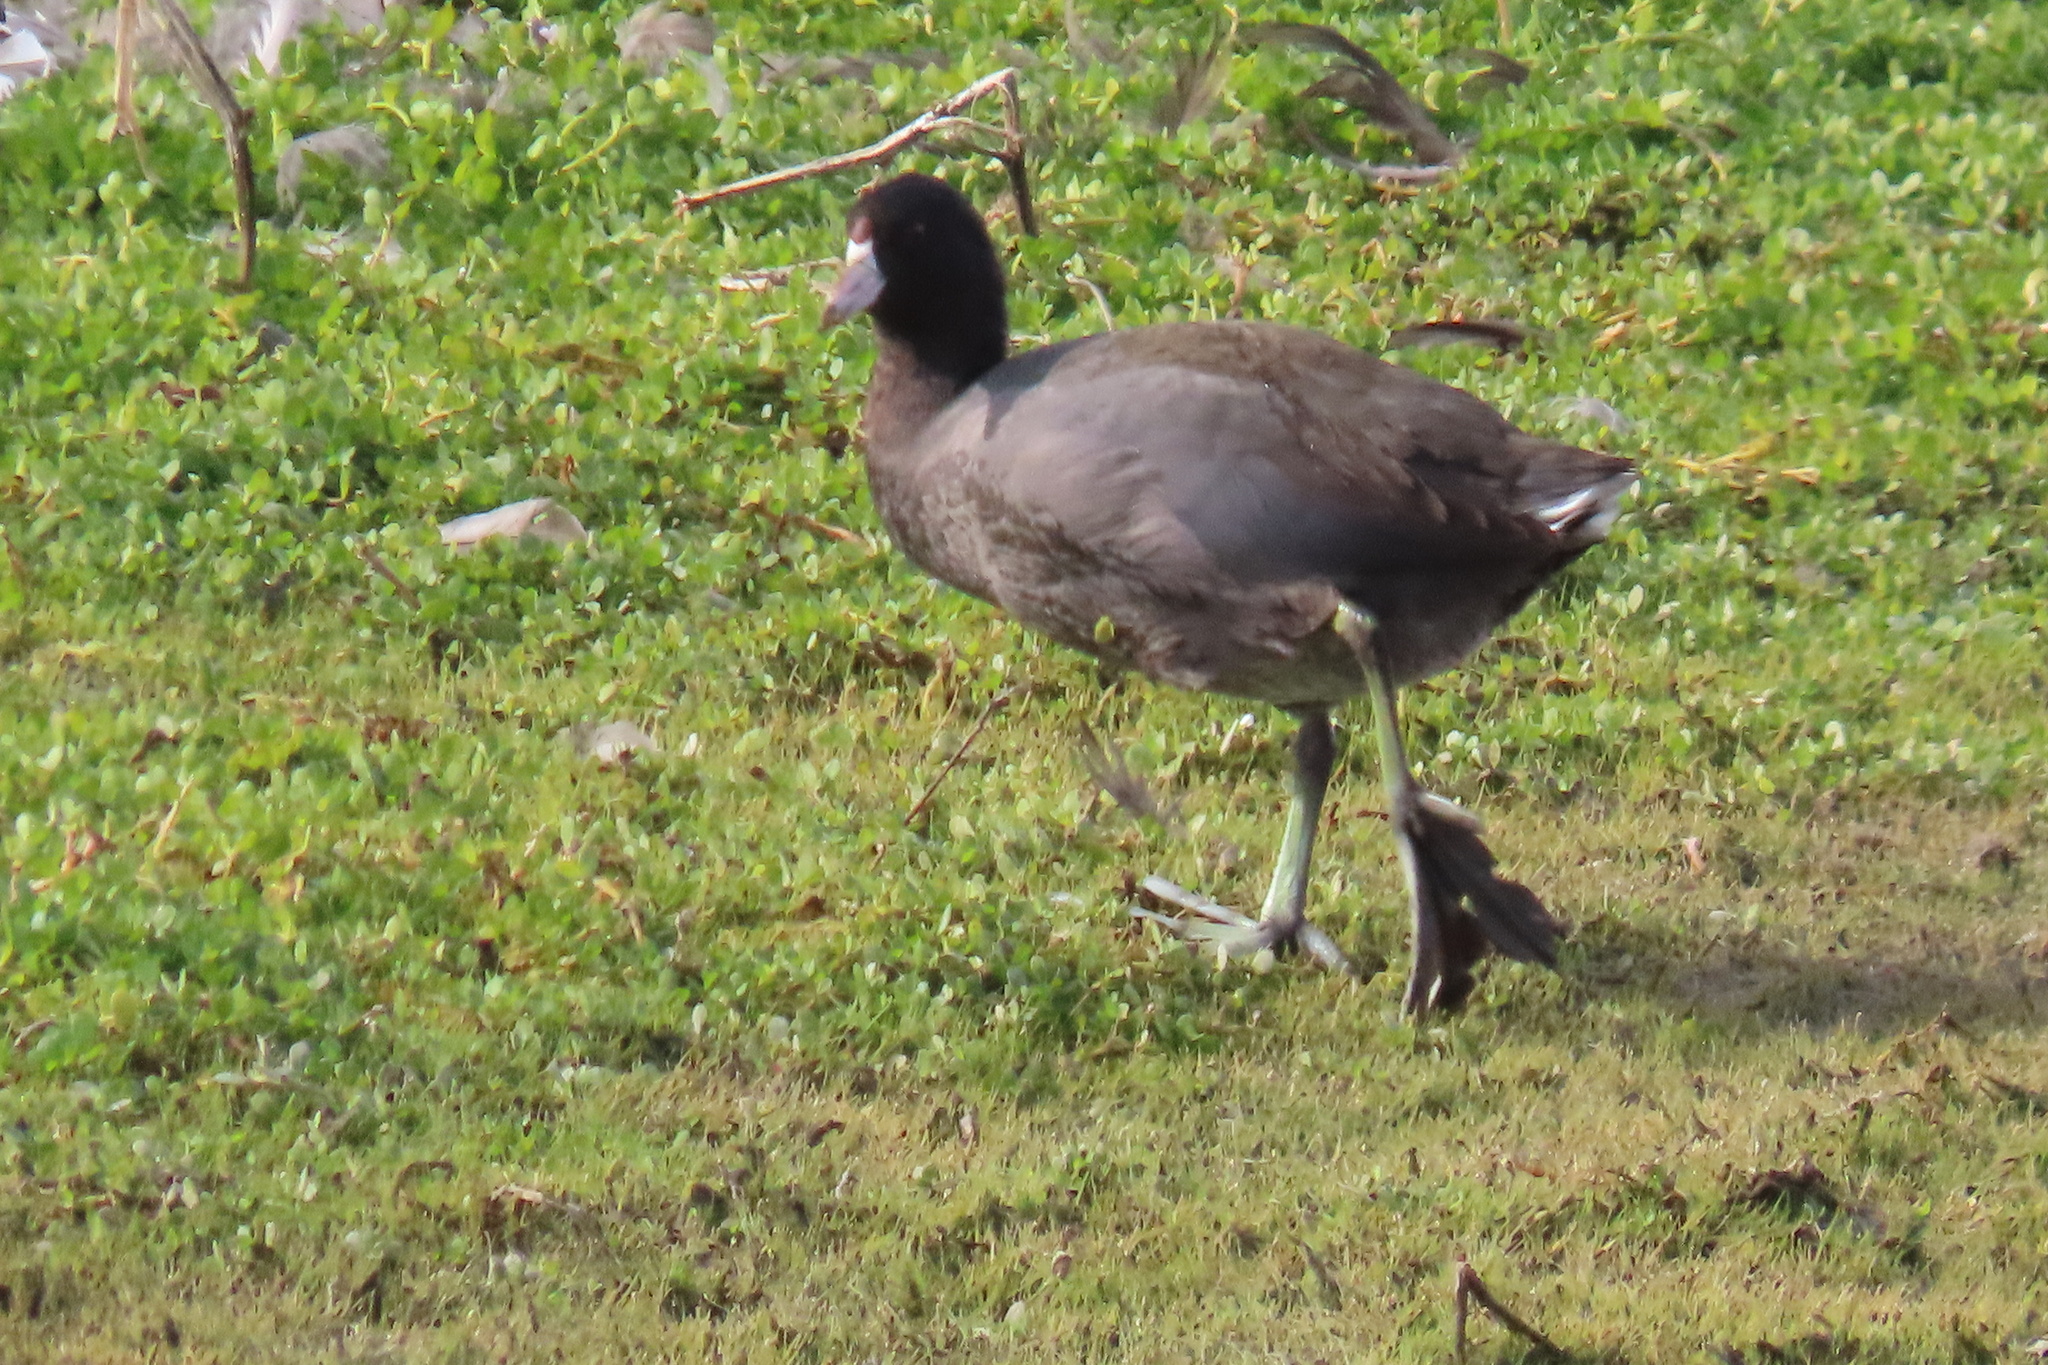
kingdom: Animalia
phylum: Chordata
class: Aves
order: Gruiformes
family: Rallidae
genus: Fulica
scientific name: Fulica americana
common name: American coot
